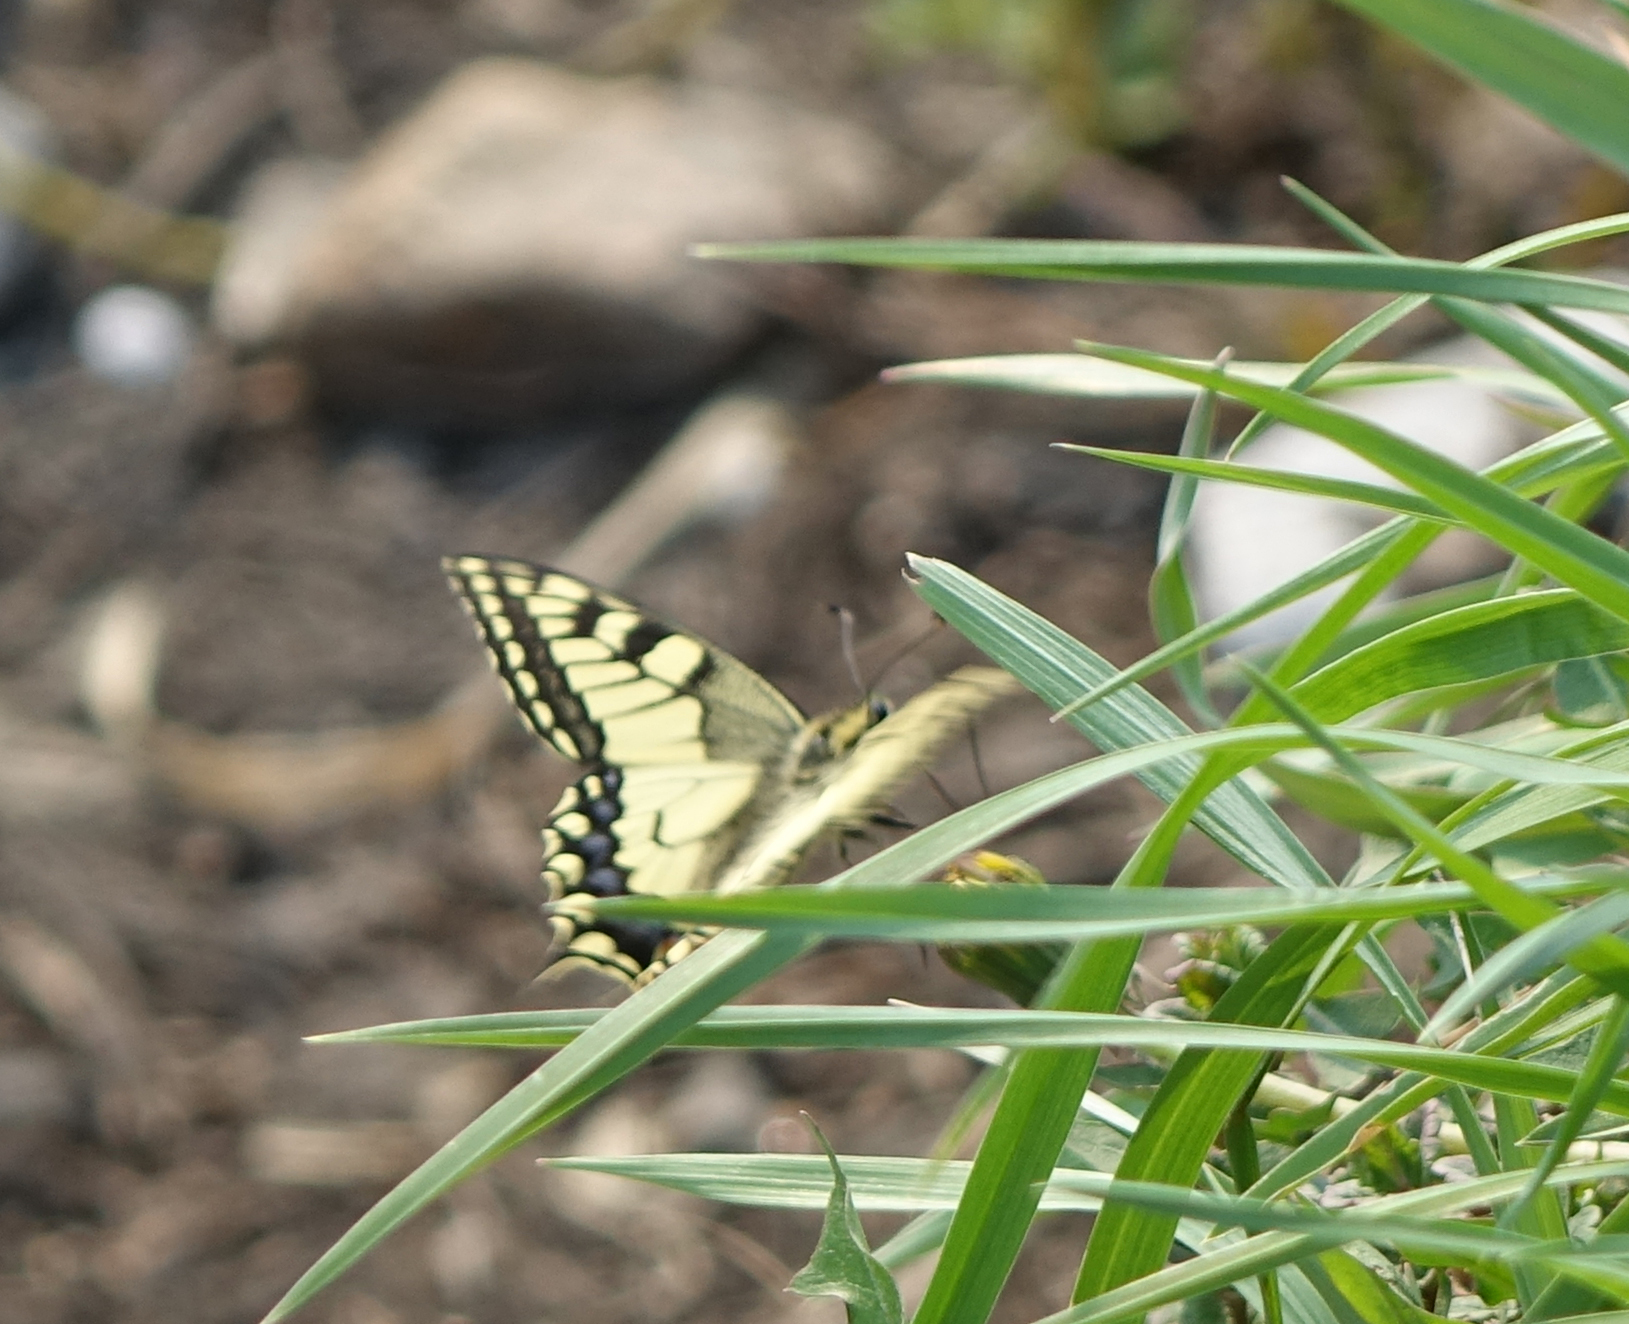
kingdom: Animalia
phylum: Arthropoda
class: Insecta
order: Lepidoptera
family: Papilionidae
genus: Papilio
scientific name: Papilio machaon
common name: Swallowtail
